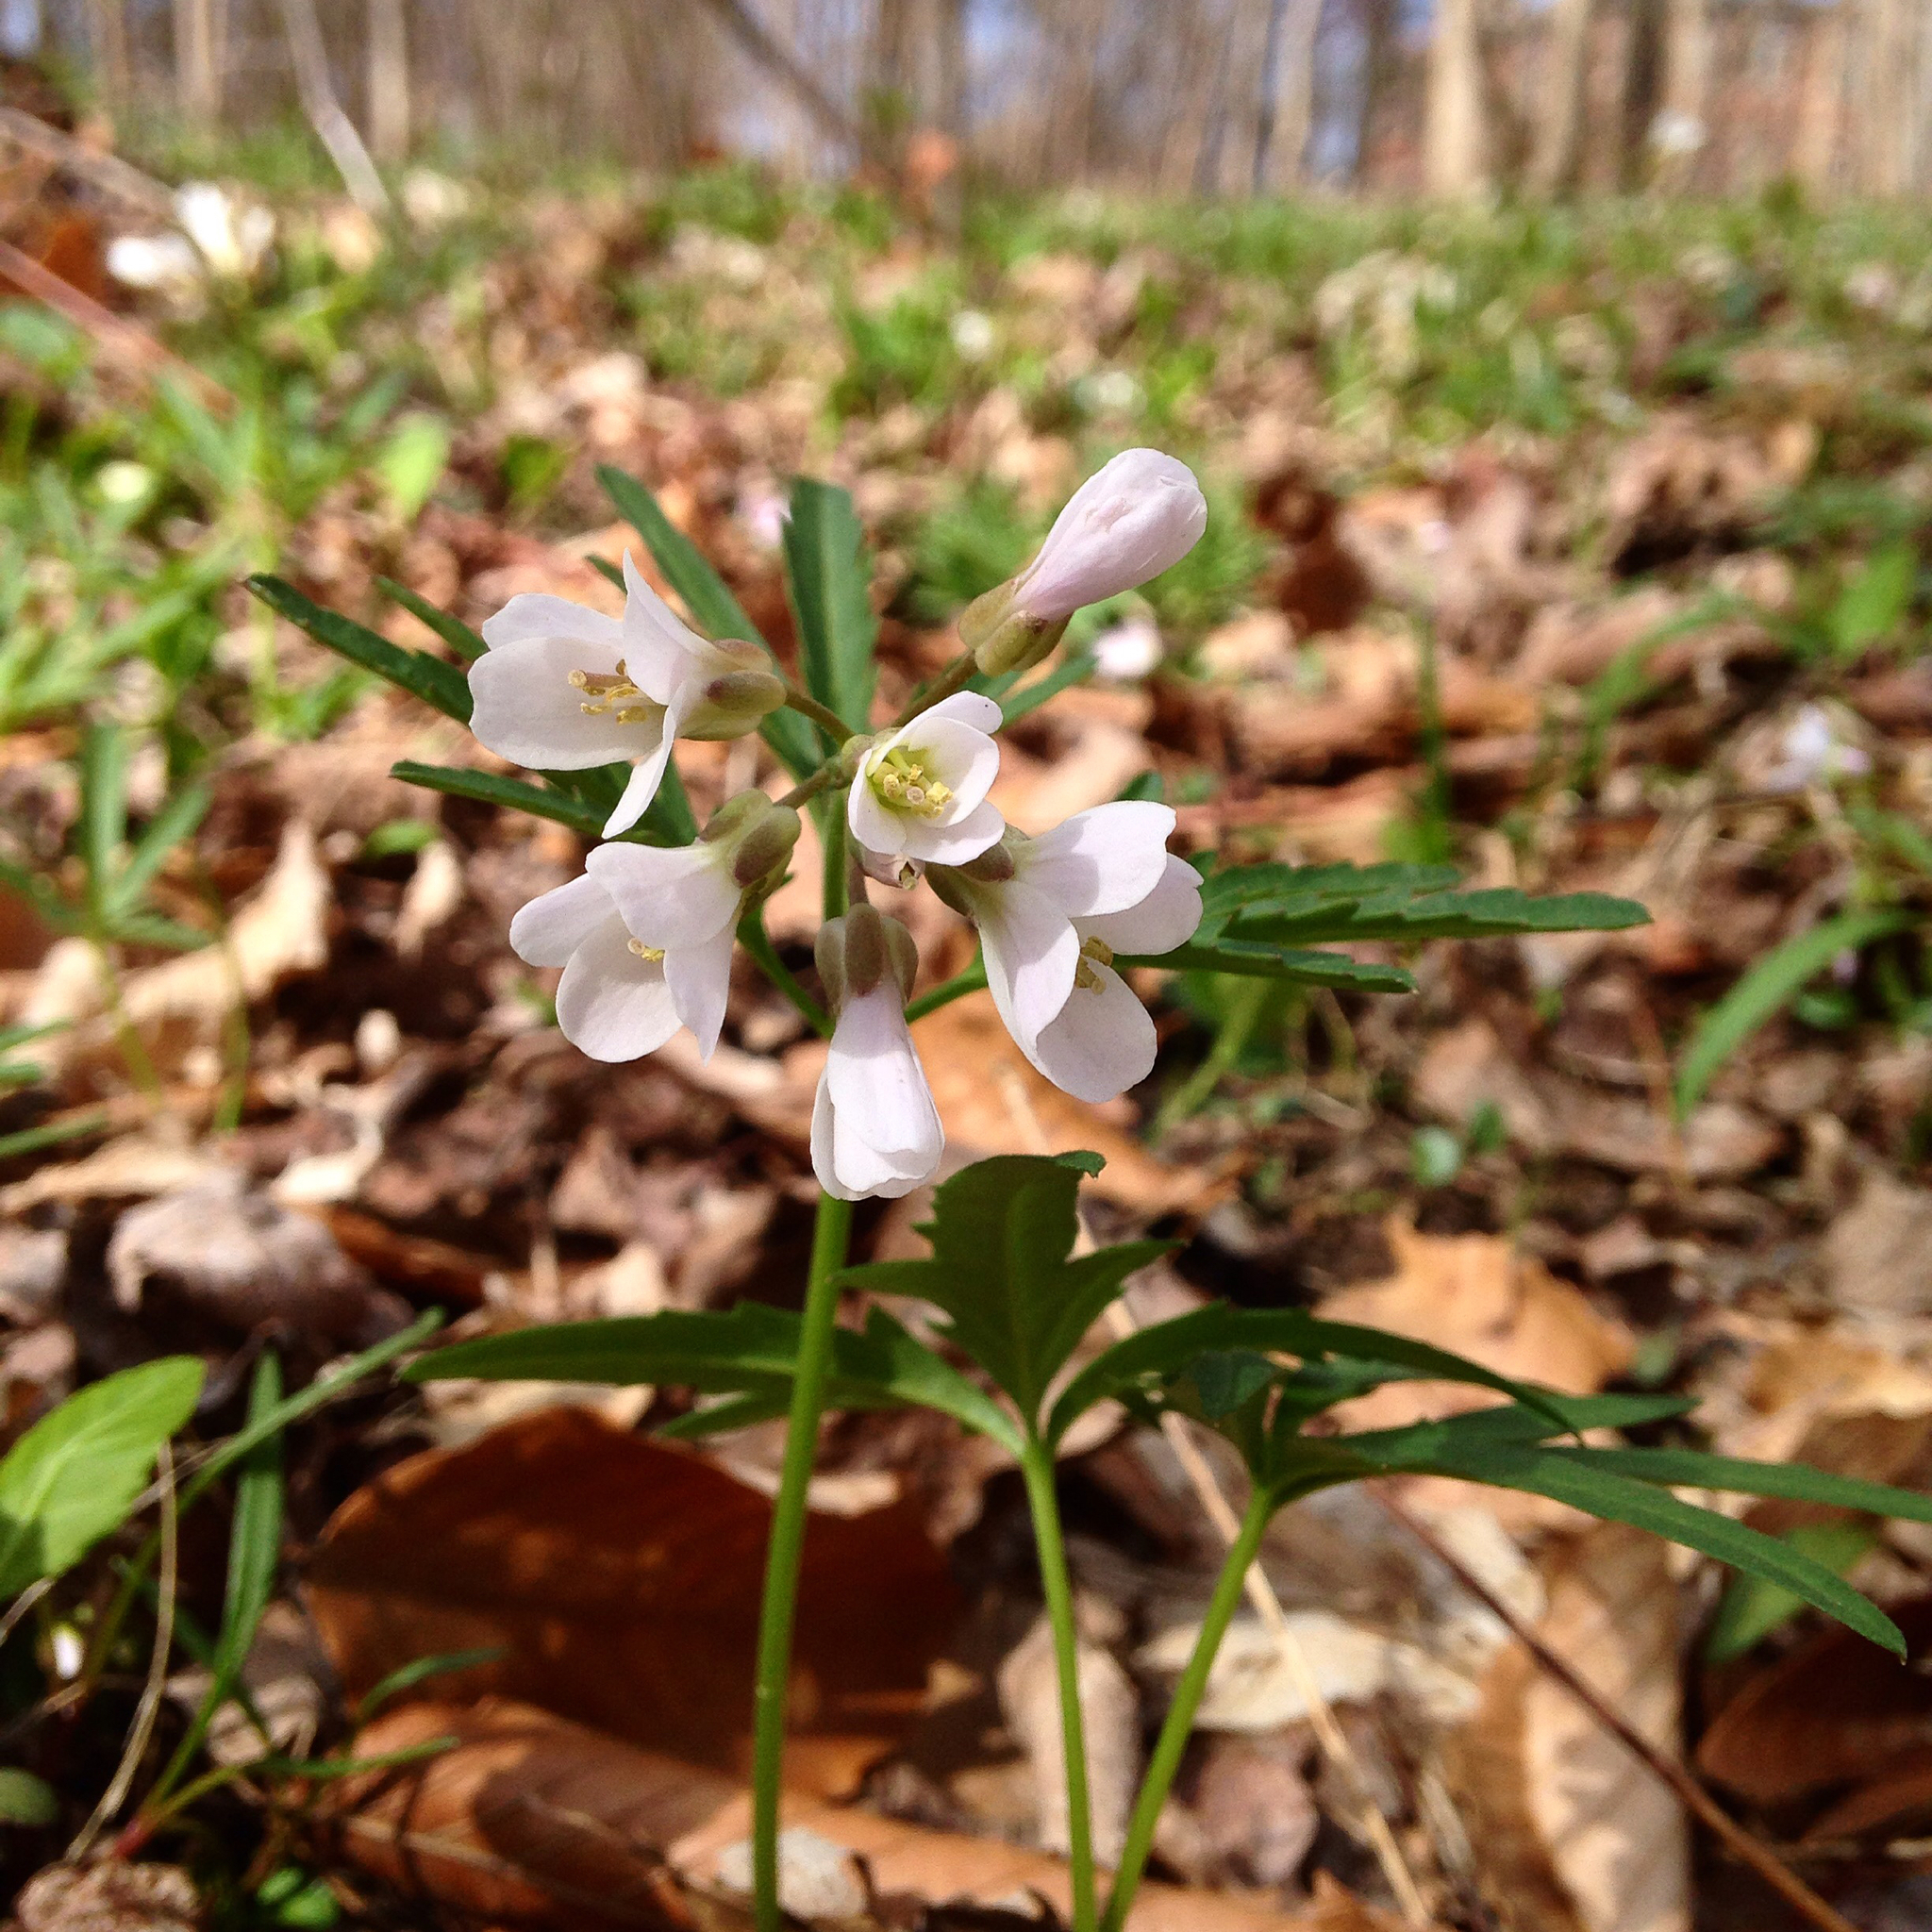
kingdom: Plantae
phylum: Tracheophyta
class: Magnoliopsida
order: Brassicales
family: Brassicaceae
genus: Cardamine
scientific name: Cardamine concatenata
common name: Cut-leaf toothcup
